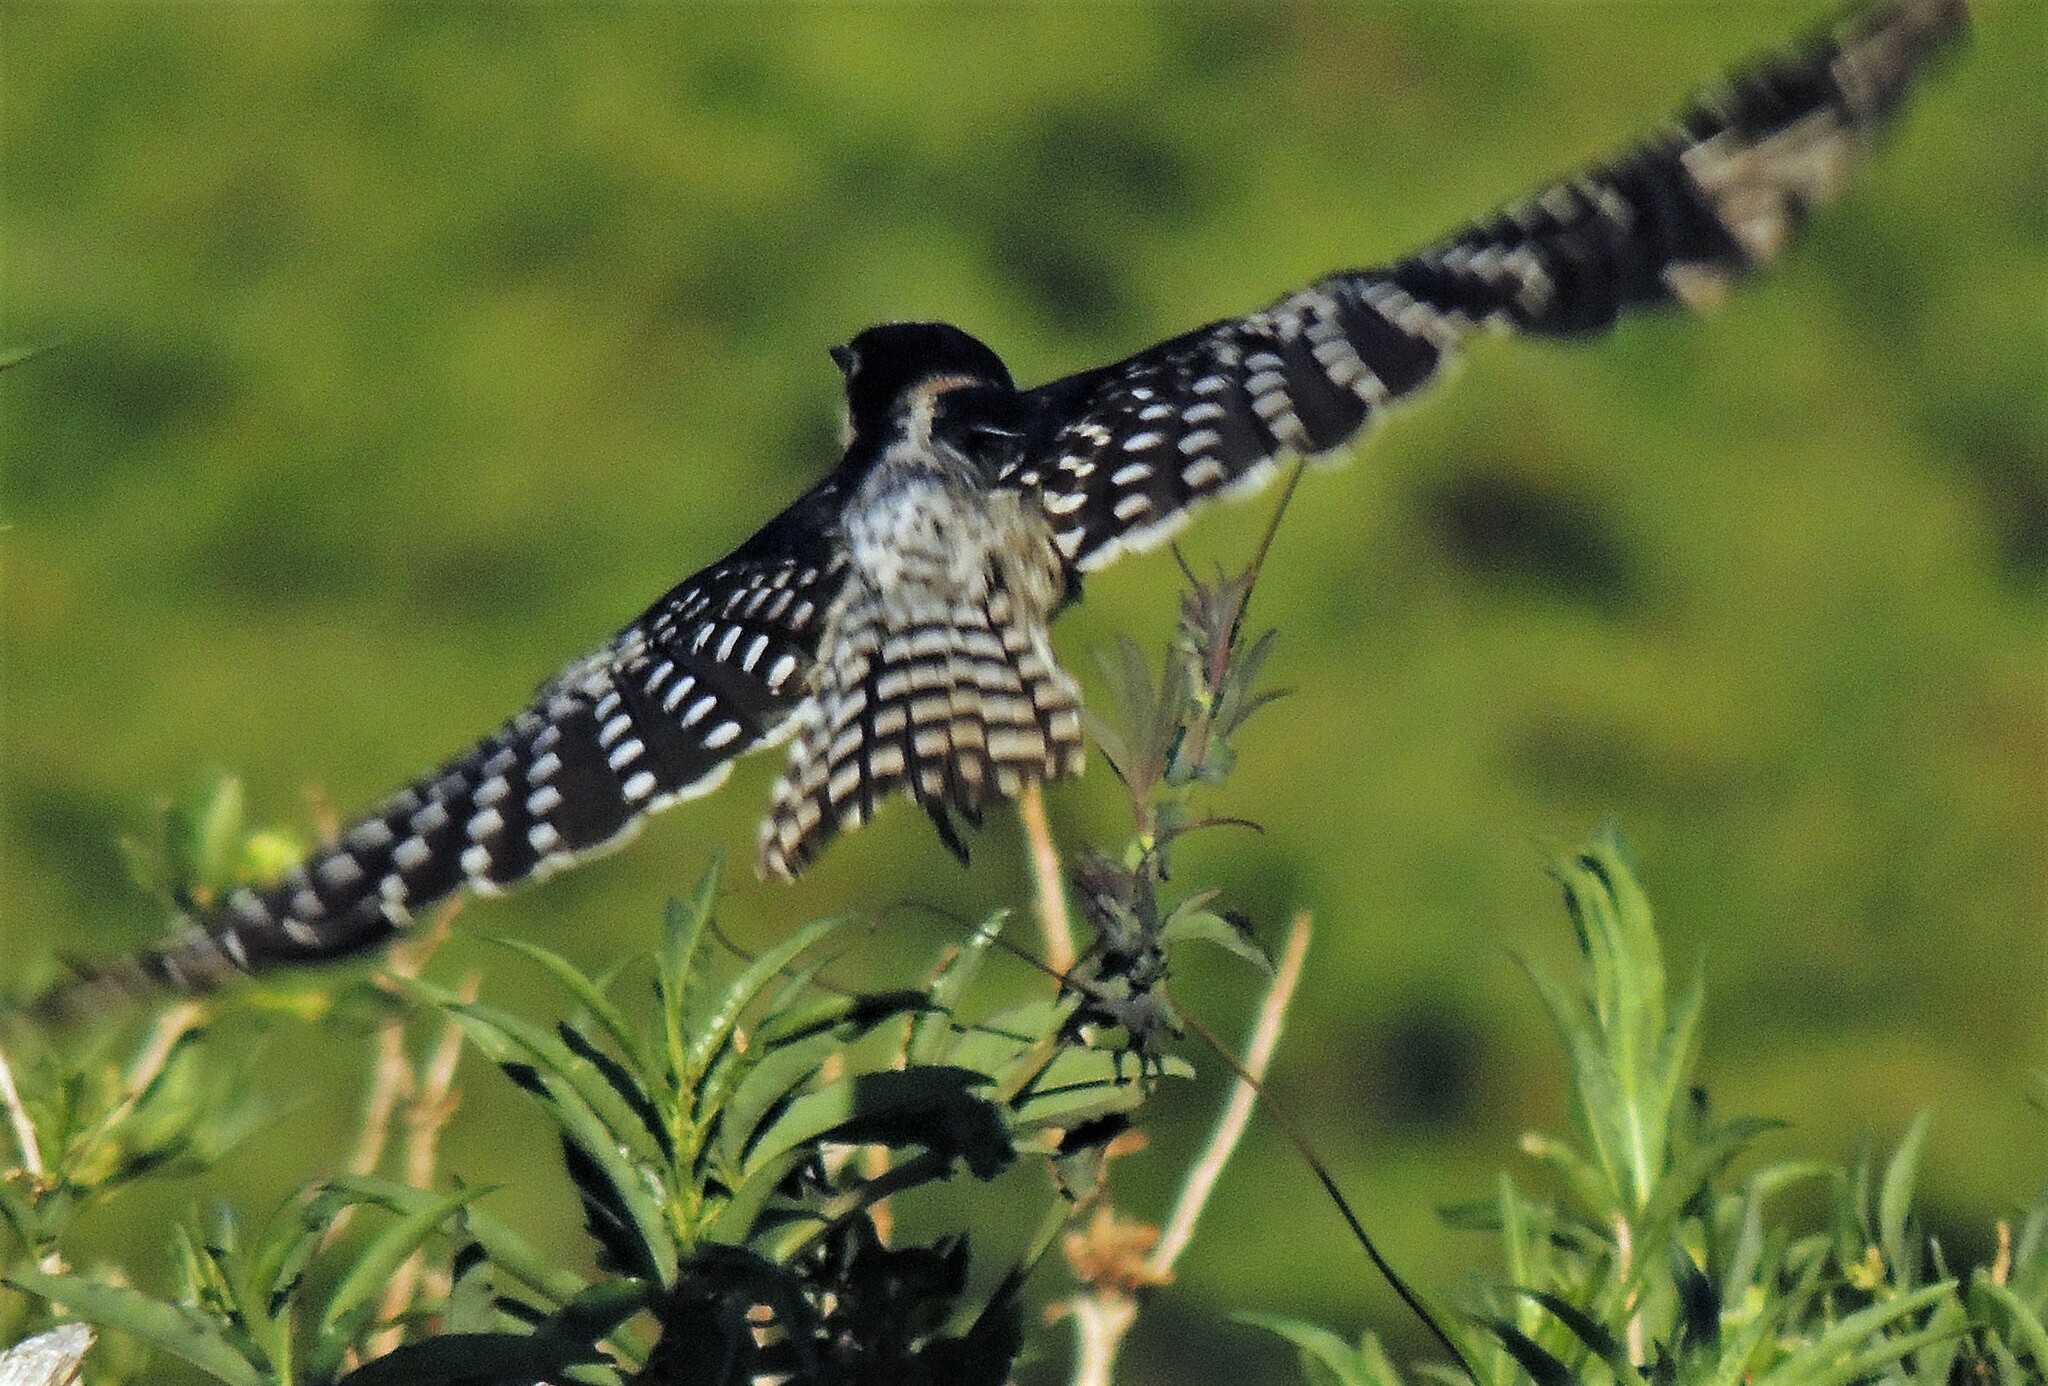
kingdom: Animalia
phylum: Chordata
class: Aves
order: Piciformes
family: Picidae
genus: Melanerpes
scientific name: Melanerpes cactorum
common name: White-fronted woodpecker
